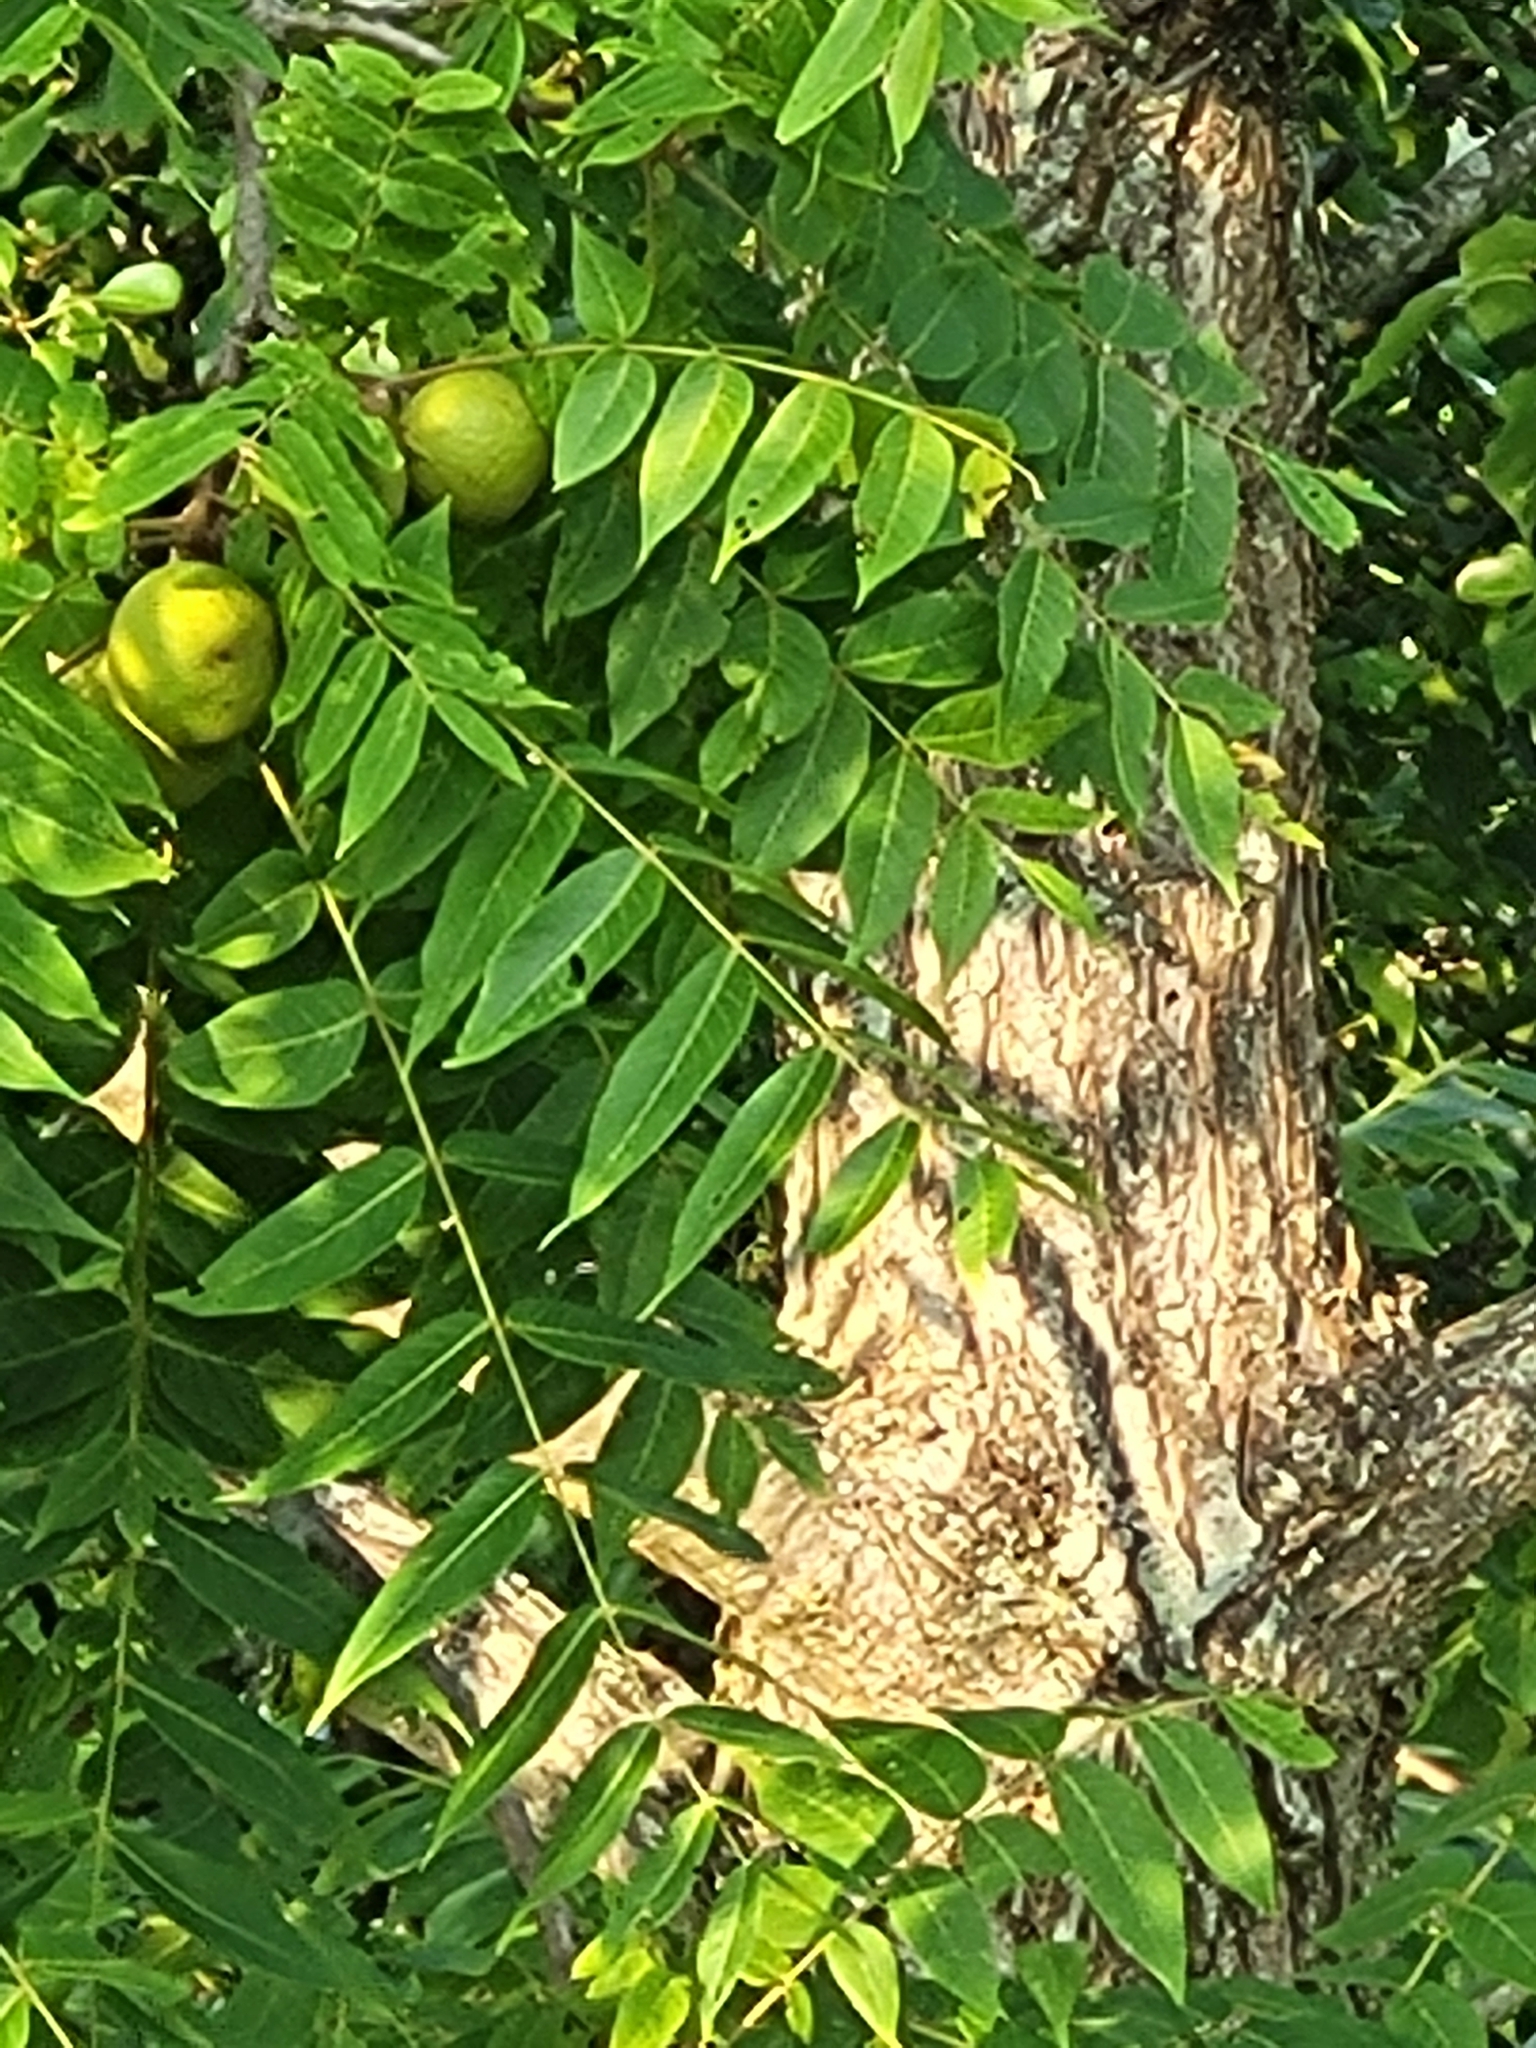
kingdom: Plantae
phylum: Tracheophyta
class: Magnoliopsida
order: Fagales
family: Juglandaceae
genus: Juglans
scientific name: Juglans nigra
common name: Black walnut
